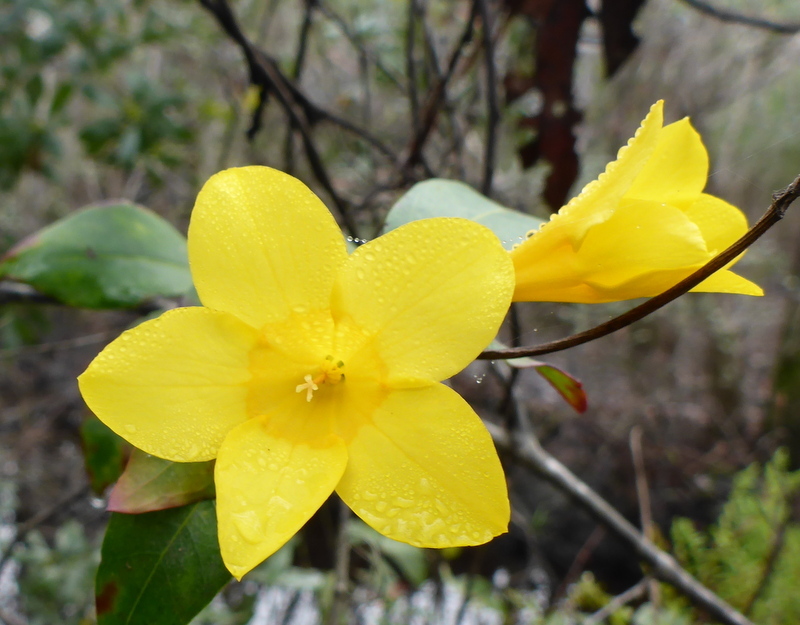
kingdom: Plantae
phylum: Tracheophyta
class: Magnoliopsida
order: Gentianales
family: Gelsemiaceae
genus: Gelsemium
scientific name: Gelsemium sempervirens
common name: Carolina-jasmine
